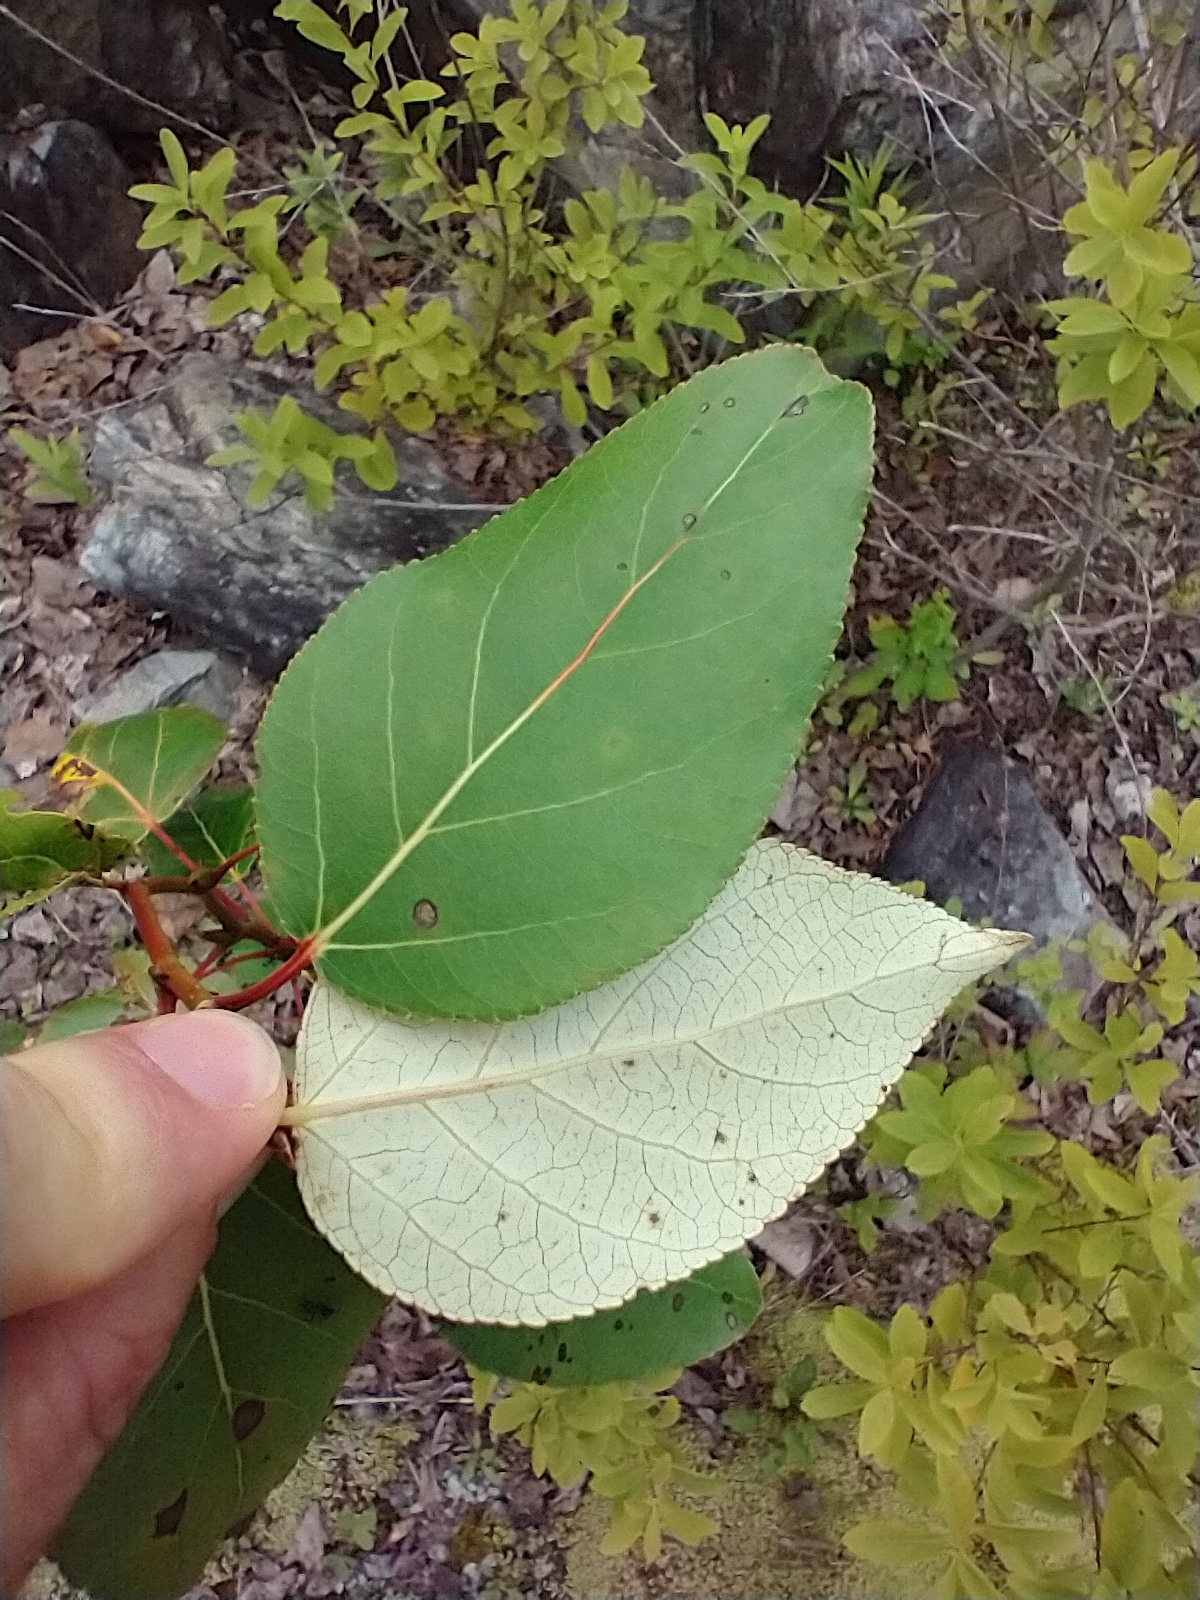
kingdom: Plantae
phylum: Tracheophyta
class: Magnoliopsida
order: Malpighiales
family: Salicaceae
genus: Populus
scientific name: Populus balsamifera
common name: Balsam poplar
